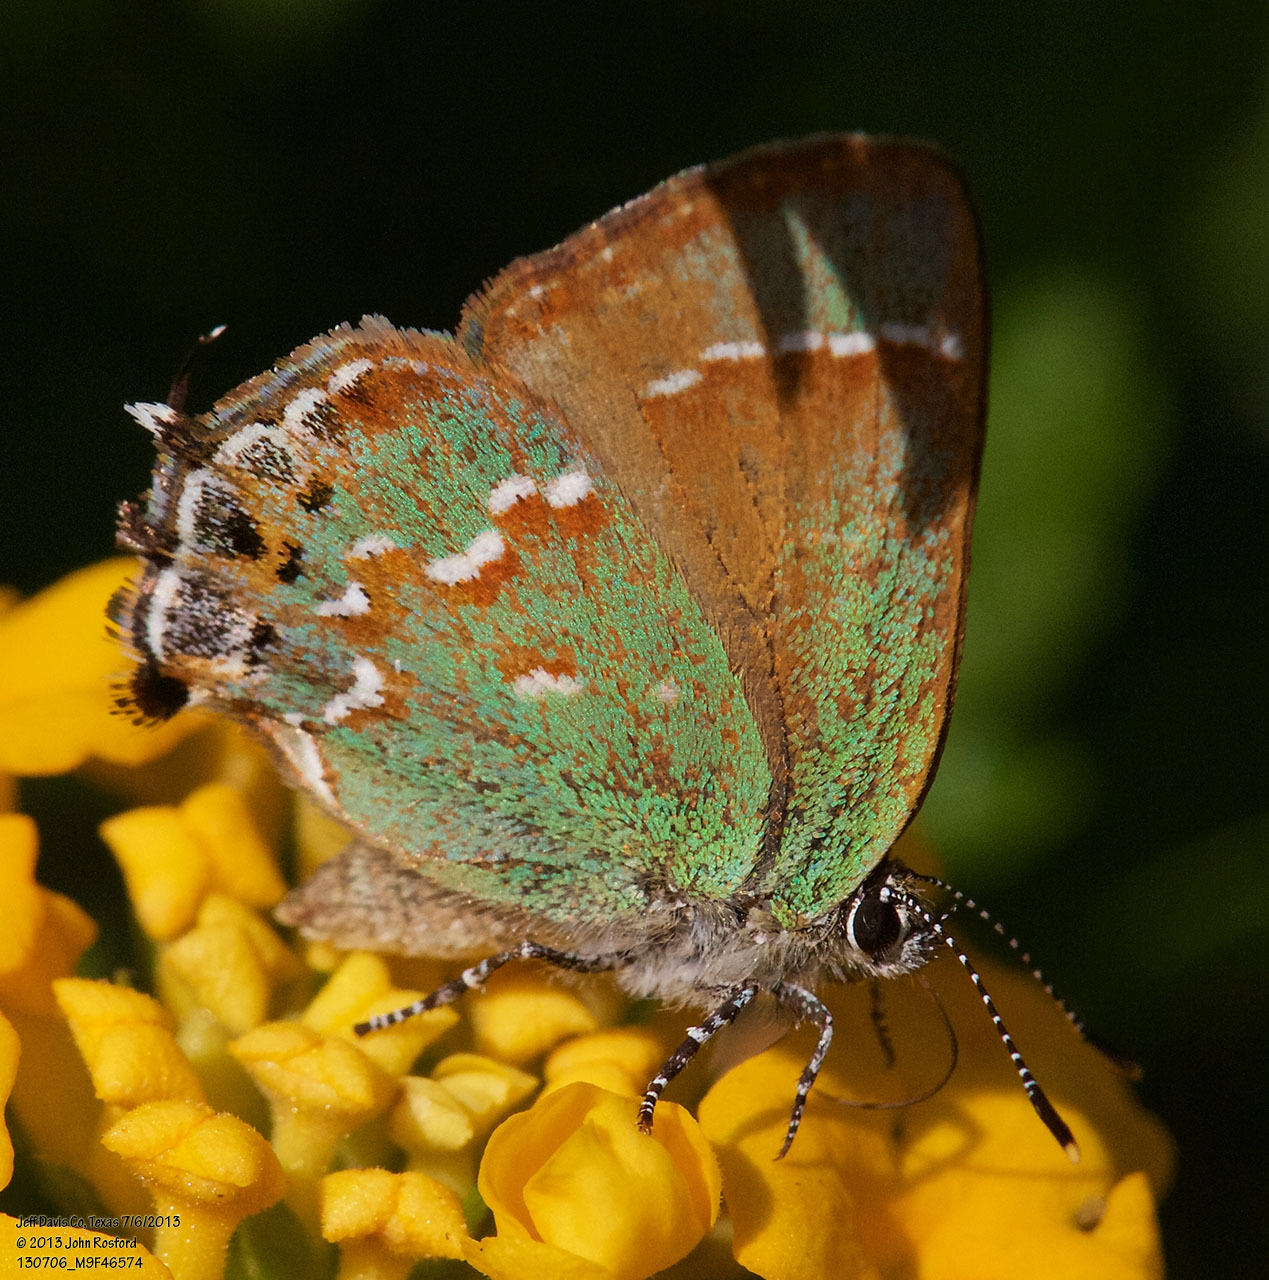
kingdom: Animalia
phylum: Arthropoda
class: Insecta
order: Lepidoptera
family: Lycaenidae
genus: Mitoura
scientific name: Mitoura gryneus
